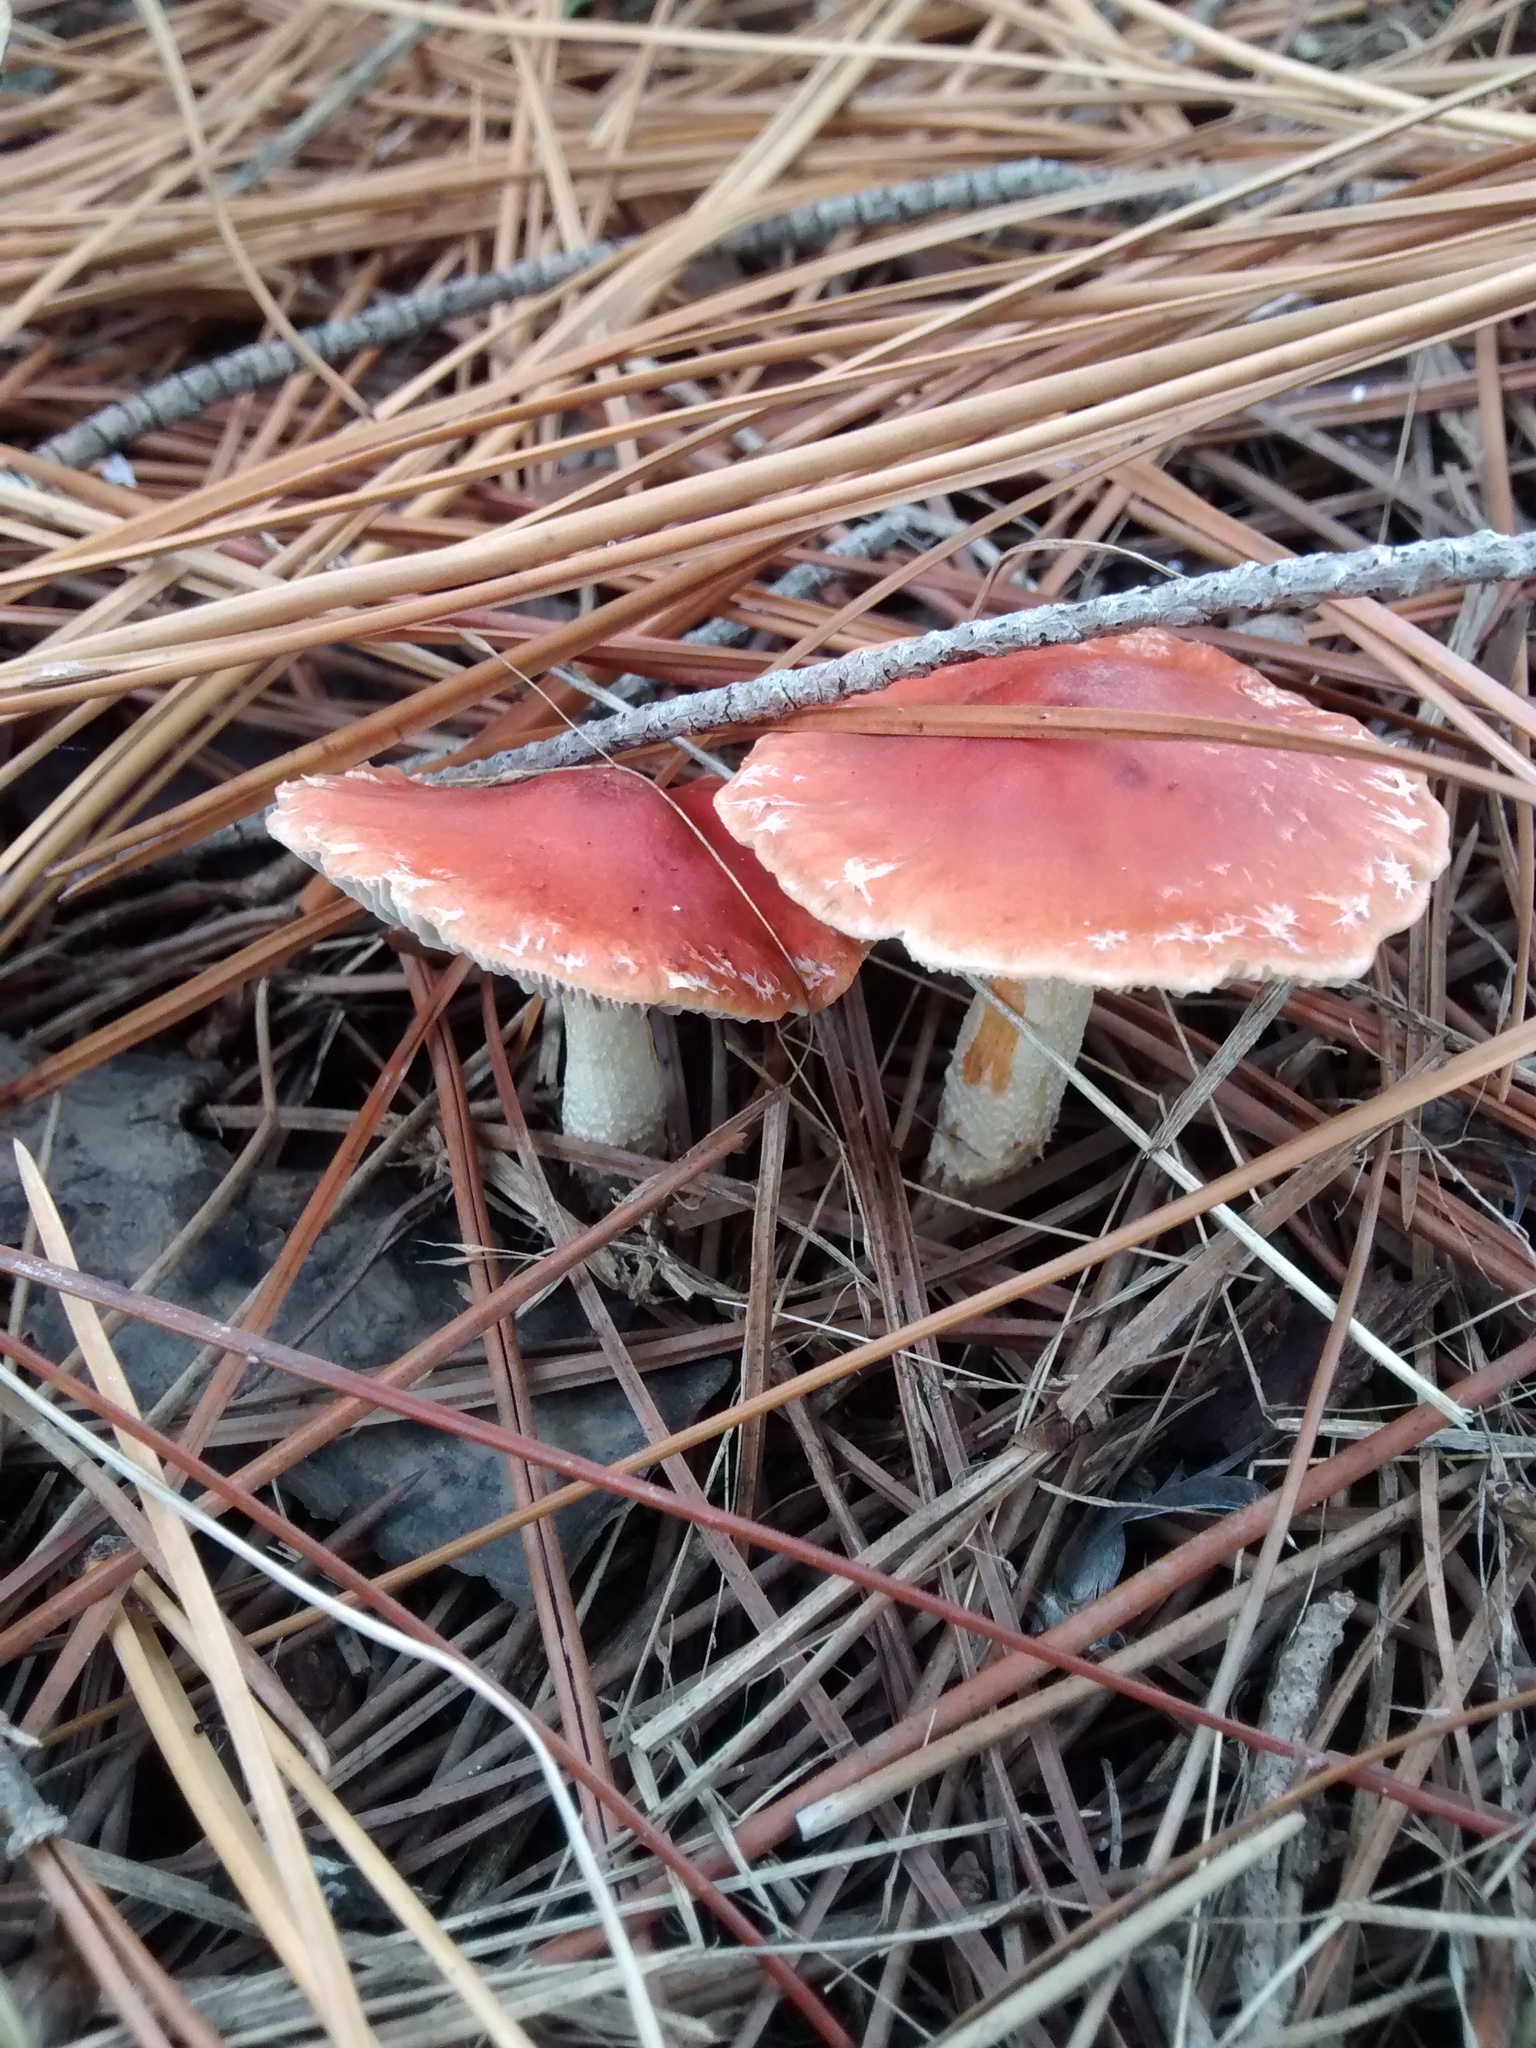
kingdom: Fungi
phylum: Basidiomycota
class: Agaricomycetes
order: Agaricales
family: Strophariaceae
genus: Leratiomyces
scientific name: Leratiomyces ceres
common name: Redlead roundhead
